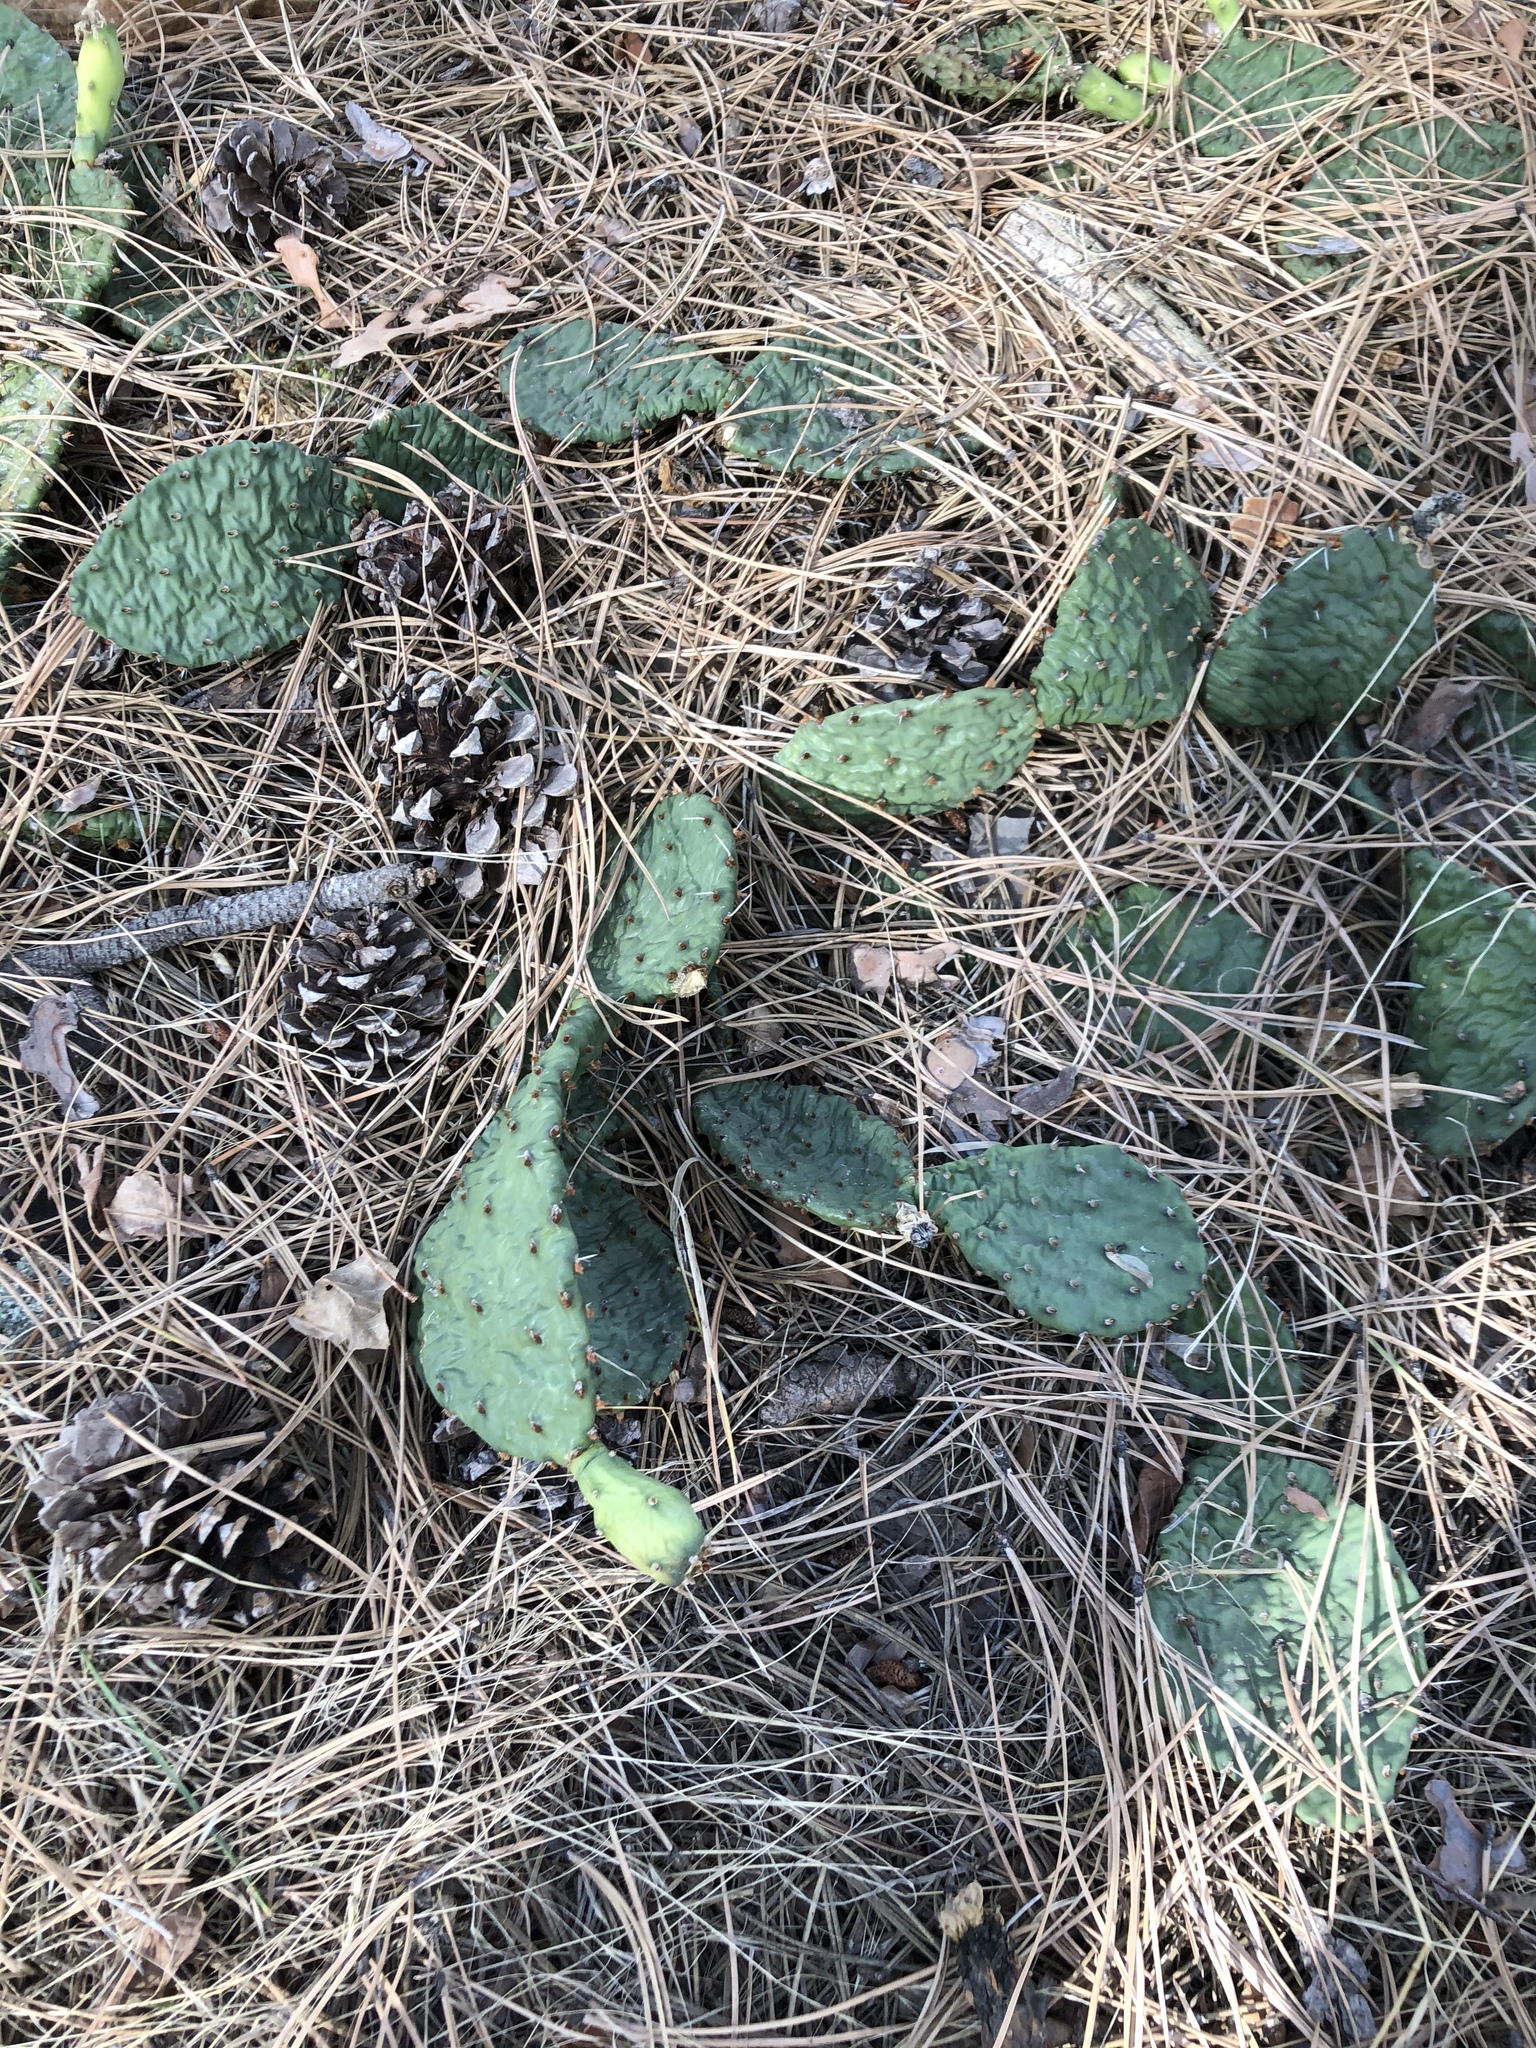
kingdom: Plantae
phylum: Tracheophyta
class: Magnoliopsida
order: Caryophyllales
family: Cactaceae
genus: Opuntia
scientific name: Opuntia macrorhiza
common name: Grassland pricklypear
